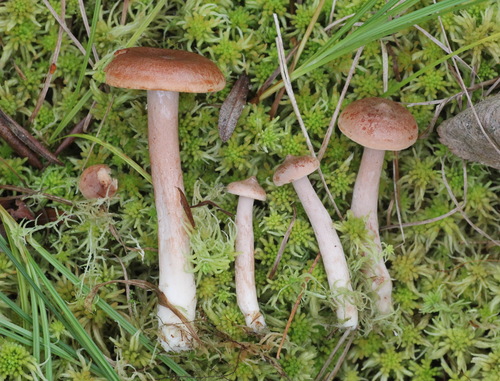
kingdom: Fungi
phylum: Basidiomycota
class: Agaricomycetes
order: Russulales
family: Russulaceae
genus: Lactarius
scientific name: Lactarius rufus
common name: Rufous milk-cap
